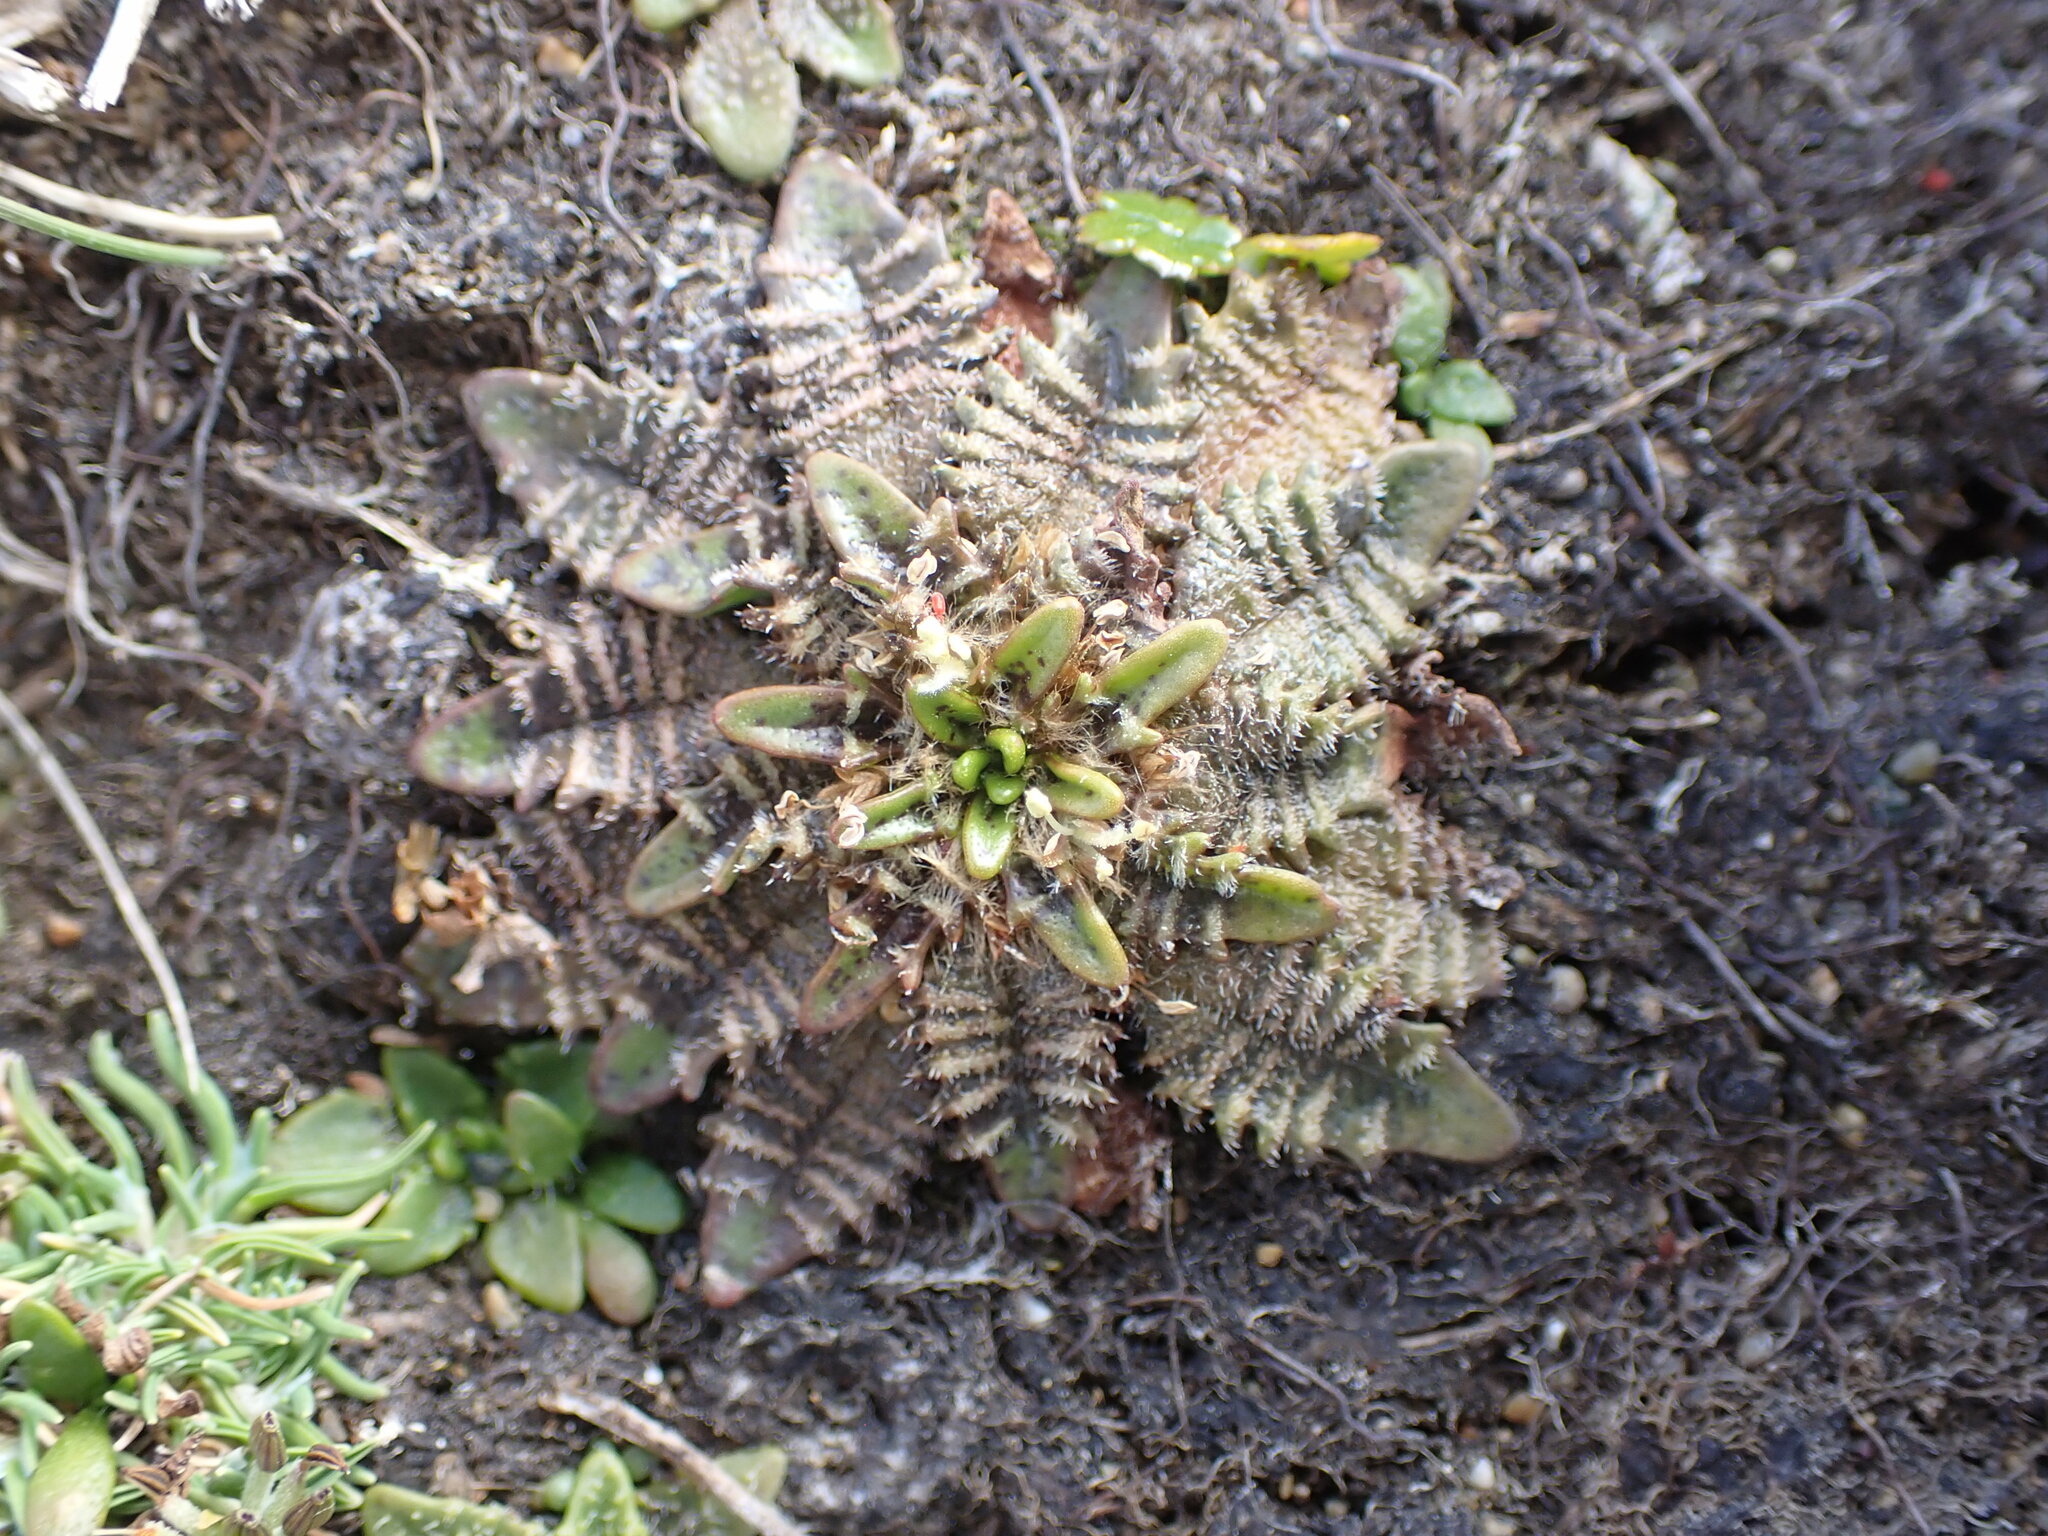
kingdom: Plantae
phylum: Tracheophyta
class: Magnoliopsida
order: Lamiales
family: Plantaginaceae
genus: Plantago
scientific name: Plantago triandra
